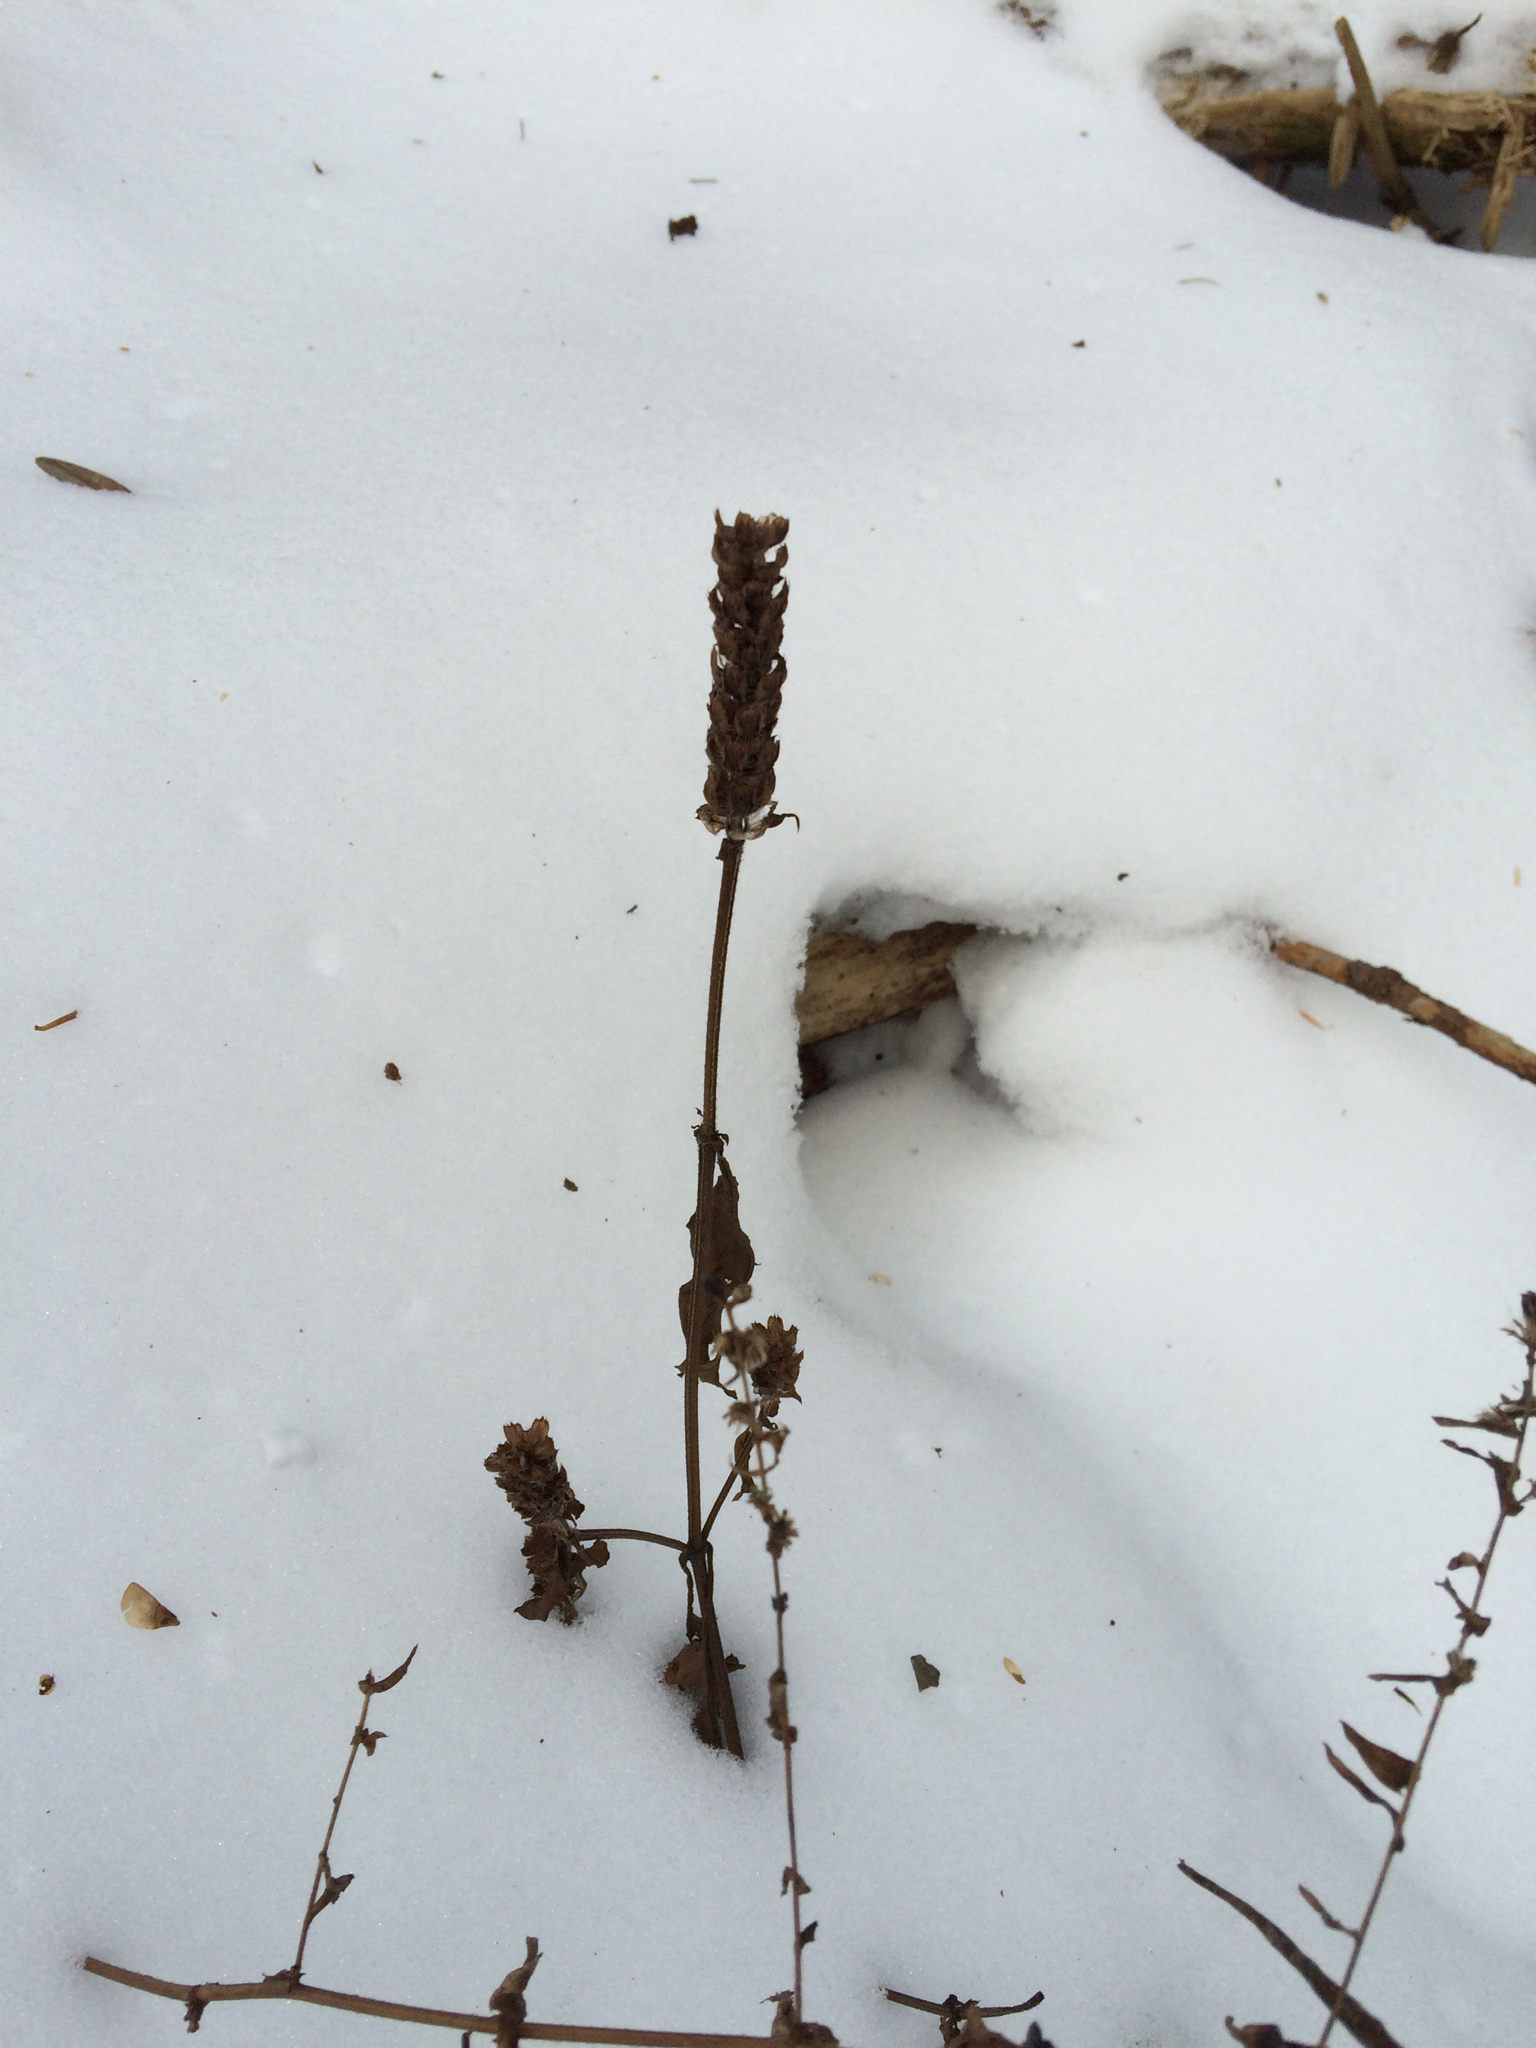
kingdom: Plantae
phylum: Tracheophyta
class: Magnoliopsida
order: Lamiales
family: Lamiaceae
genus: Prunella
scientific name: Prunella vulgaris
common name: Heal-all
